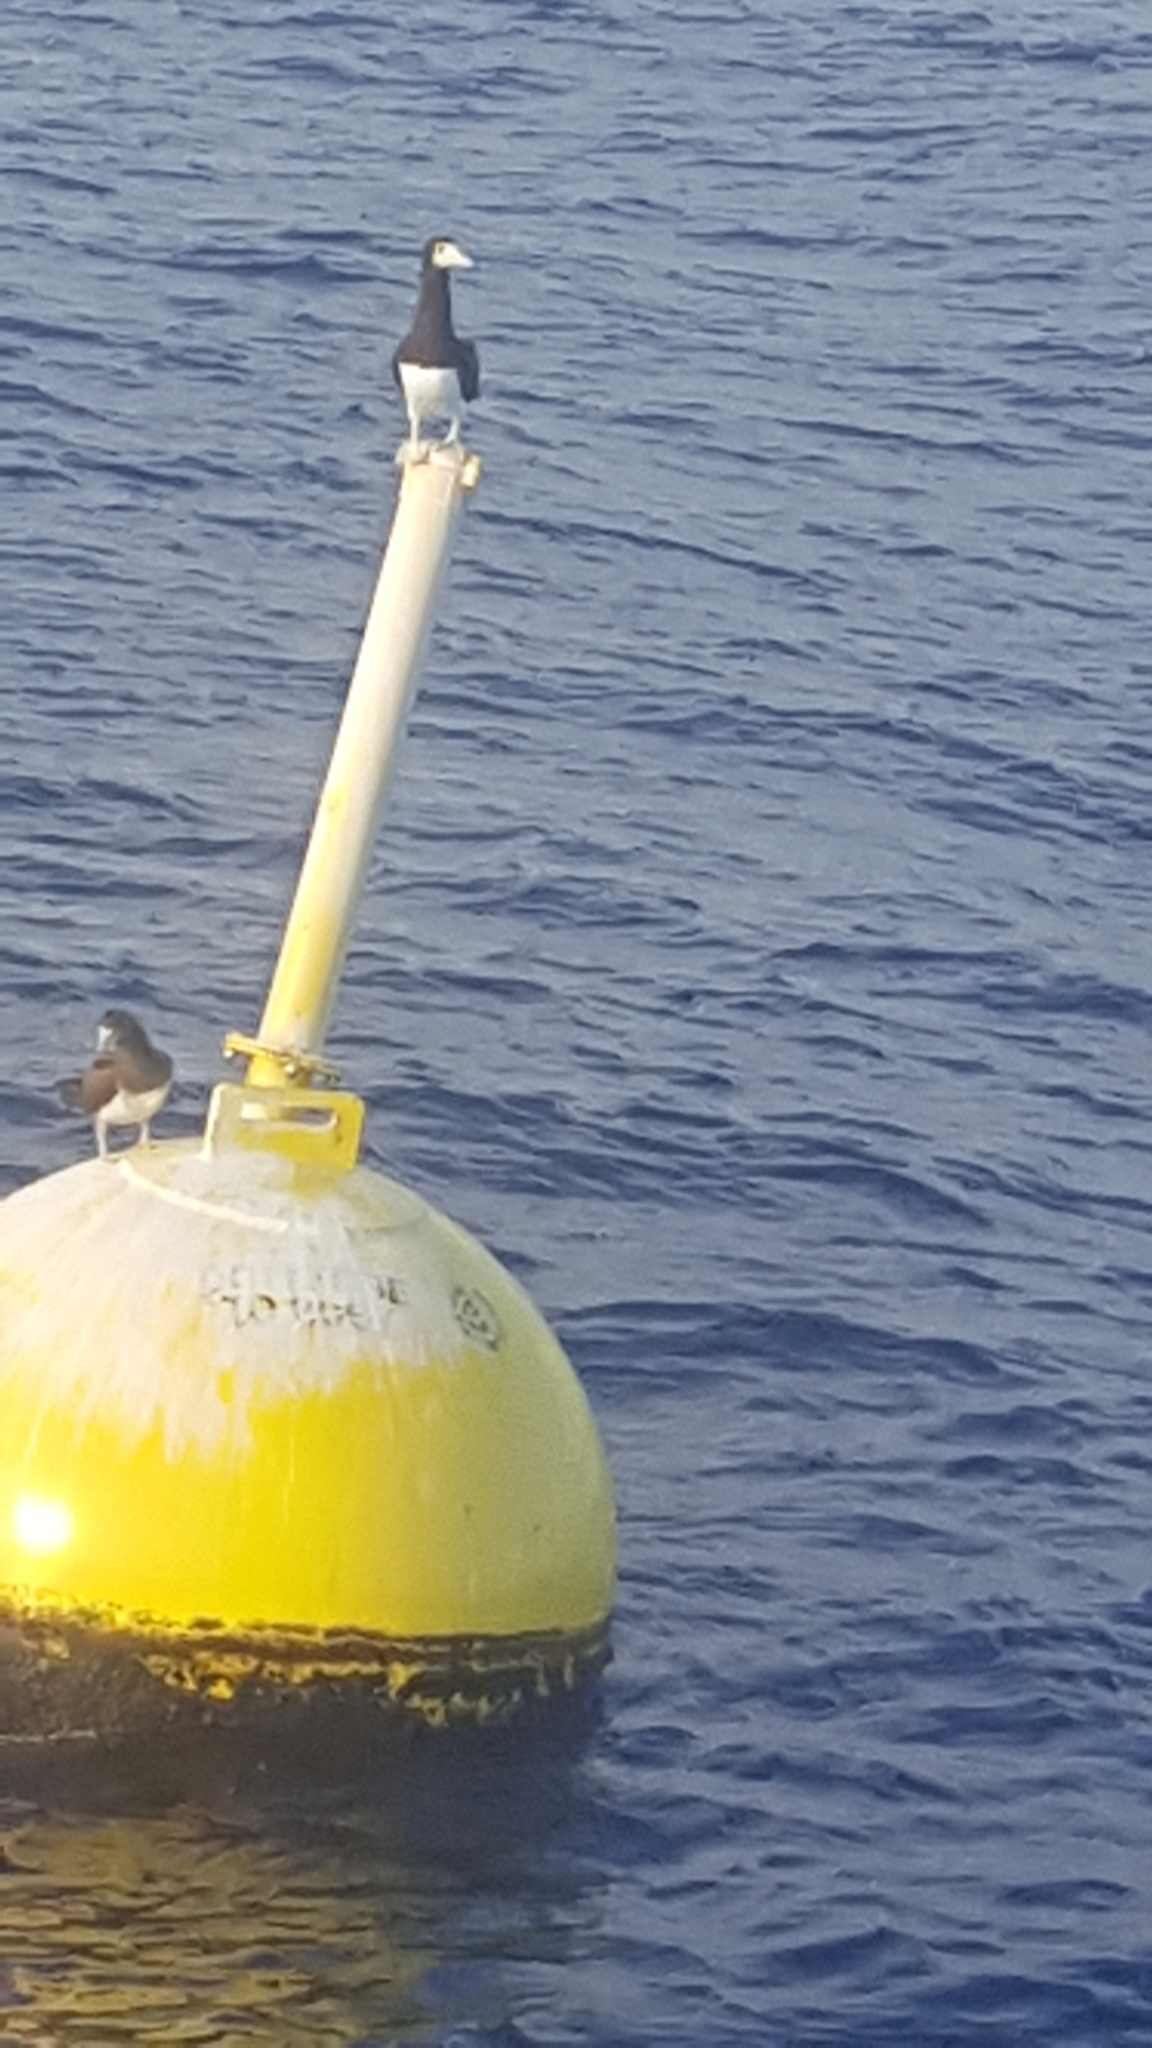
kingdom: Animalia
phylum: Chordata
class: Aves
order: Suliformes
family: Sulidae
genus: Sula
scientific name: Sula leucogaster
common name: Brown booby
